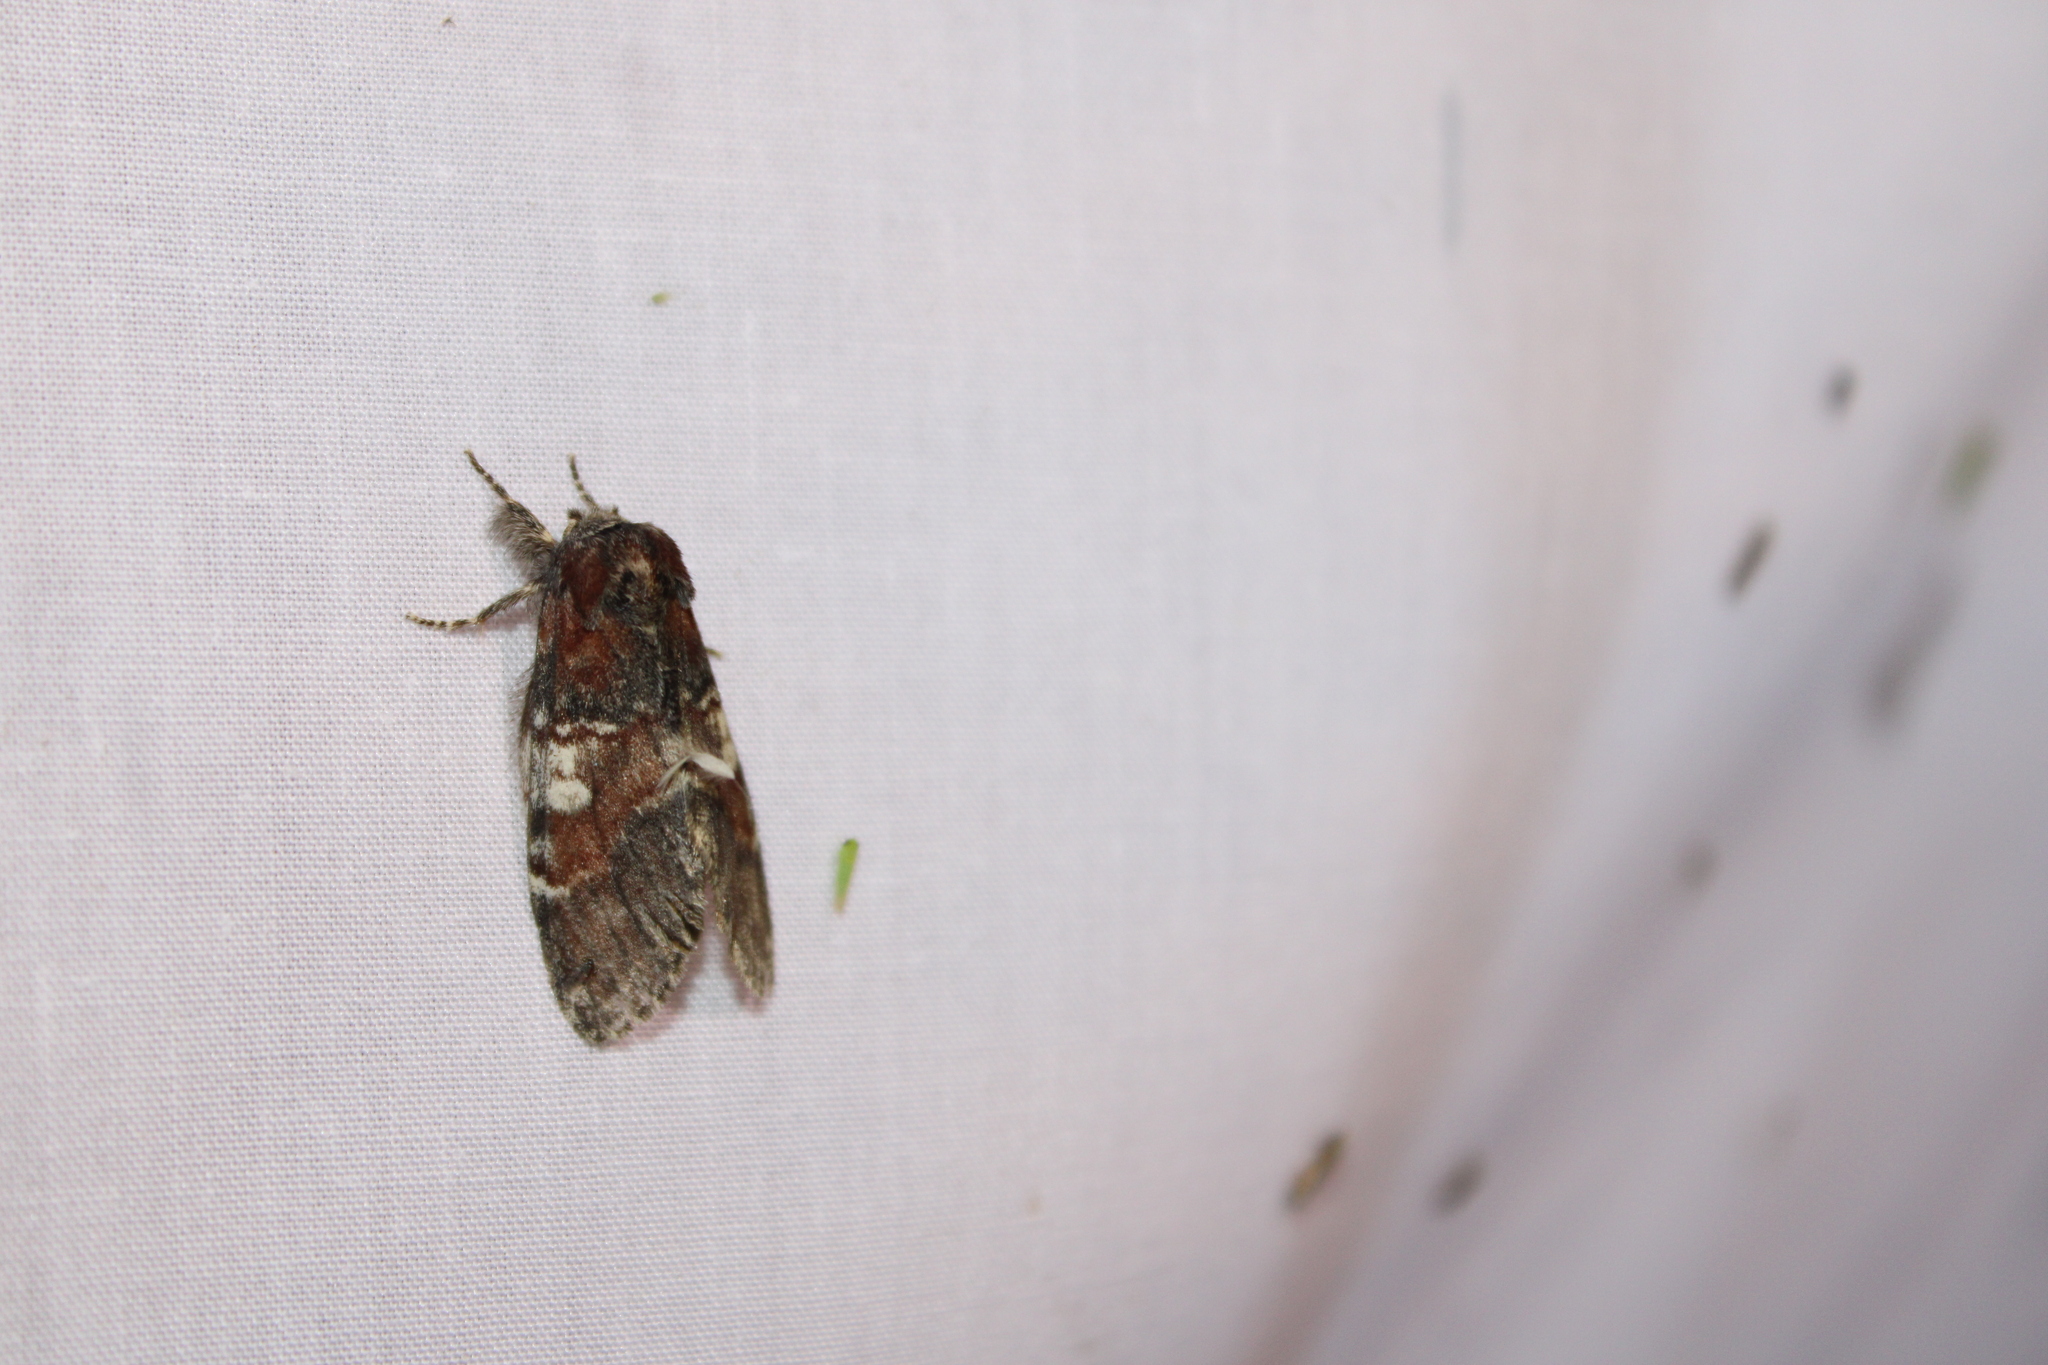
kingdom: Animalia
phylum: Arthropoda
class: Insecta
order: Lepidoptera
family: Notodontidae
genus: Peridea
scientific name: Peridea ferruginea
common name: Chocolate prominent
